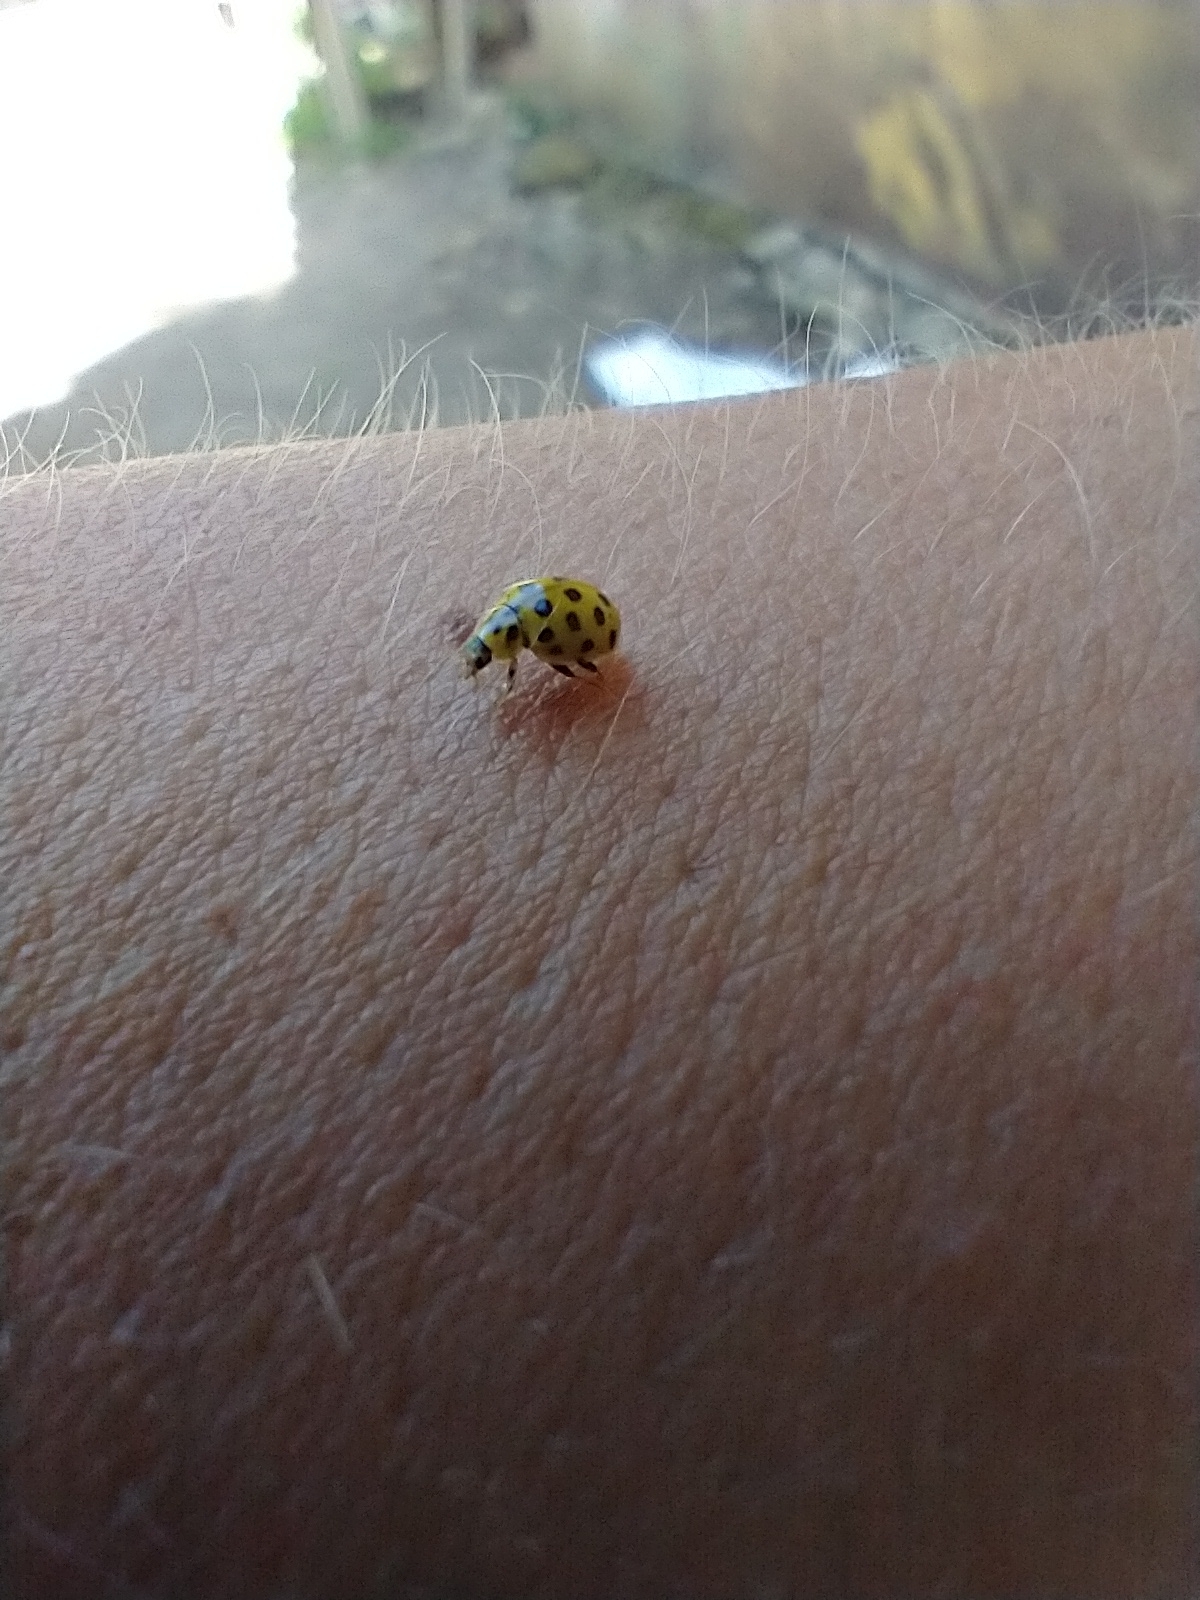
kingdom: Animalia
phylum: Arthropoda
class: Insecta
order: Coleoptera
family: Coccinellidae
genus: Psyllobora
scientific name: Psyllobora vigintiduopunctata
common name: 22-spot ladybird
